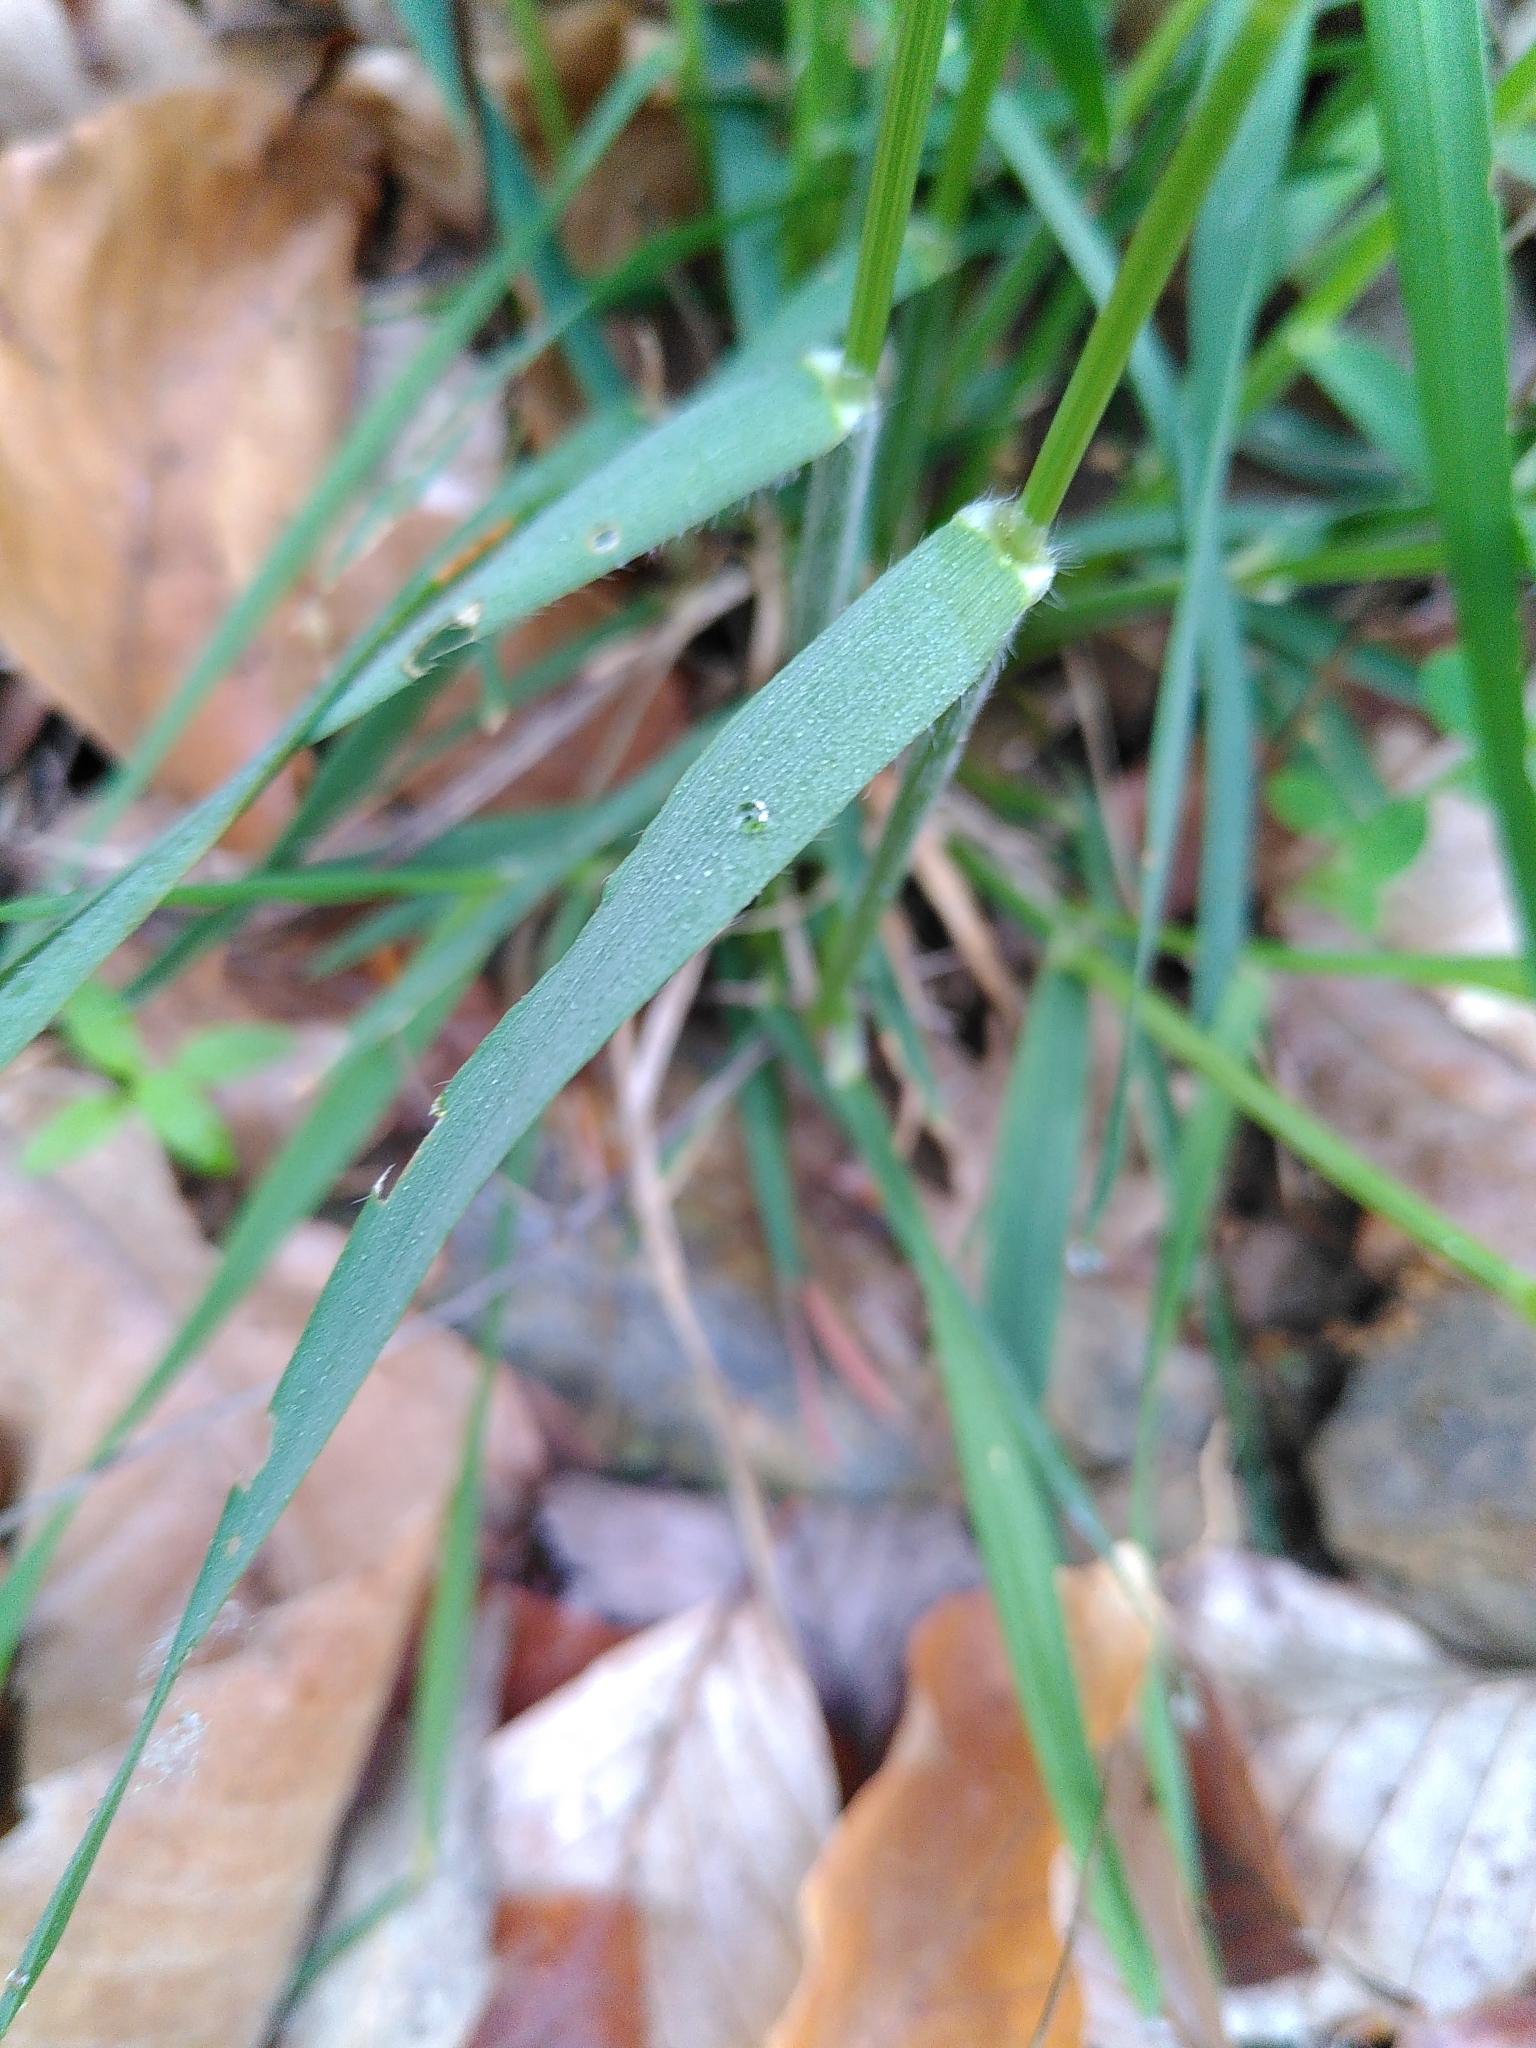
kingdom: Plantae
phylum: Tracheophyta
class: Liliopsida
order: Poales
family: Poaceae
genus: Anthoxanthum
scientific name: Anthoxanthum odoratum
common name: Sweet vernalgrass
